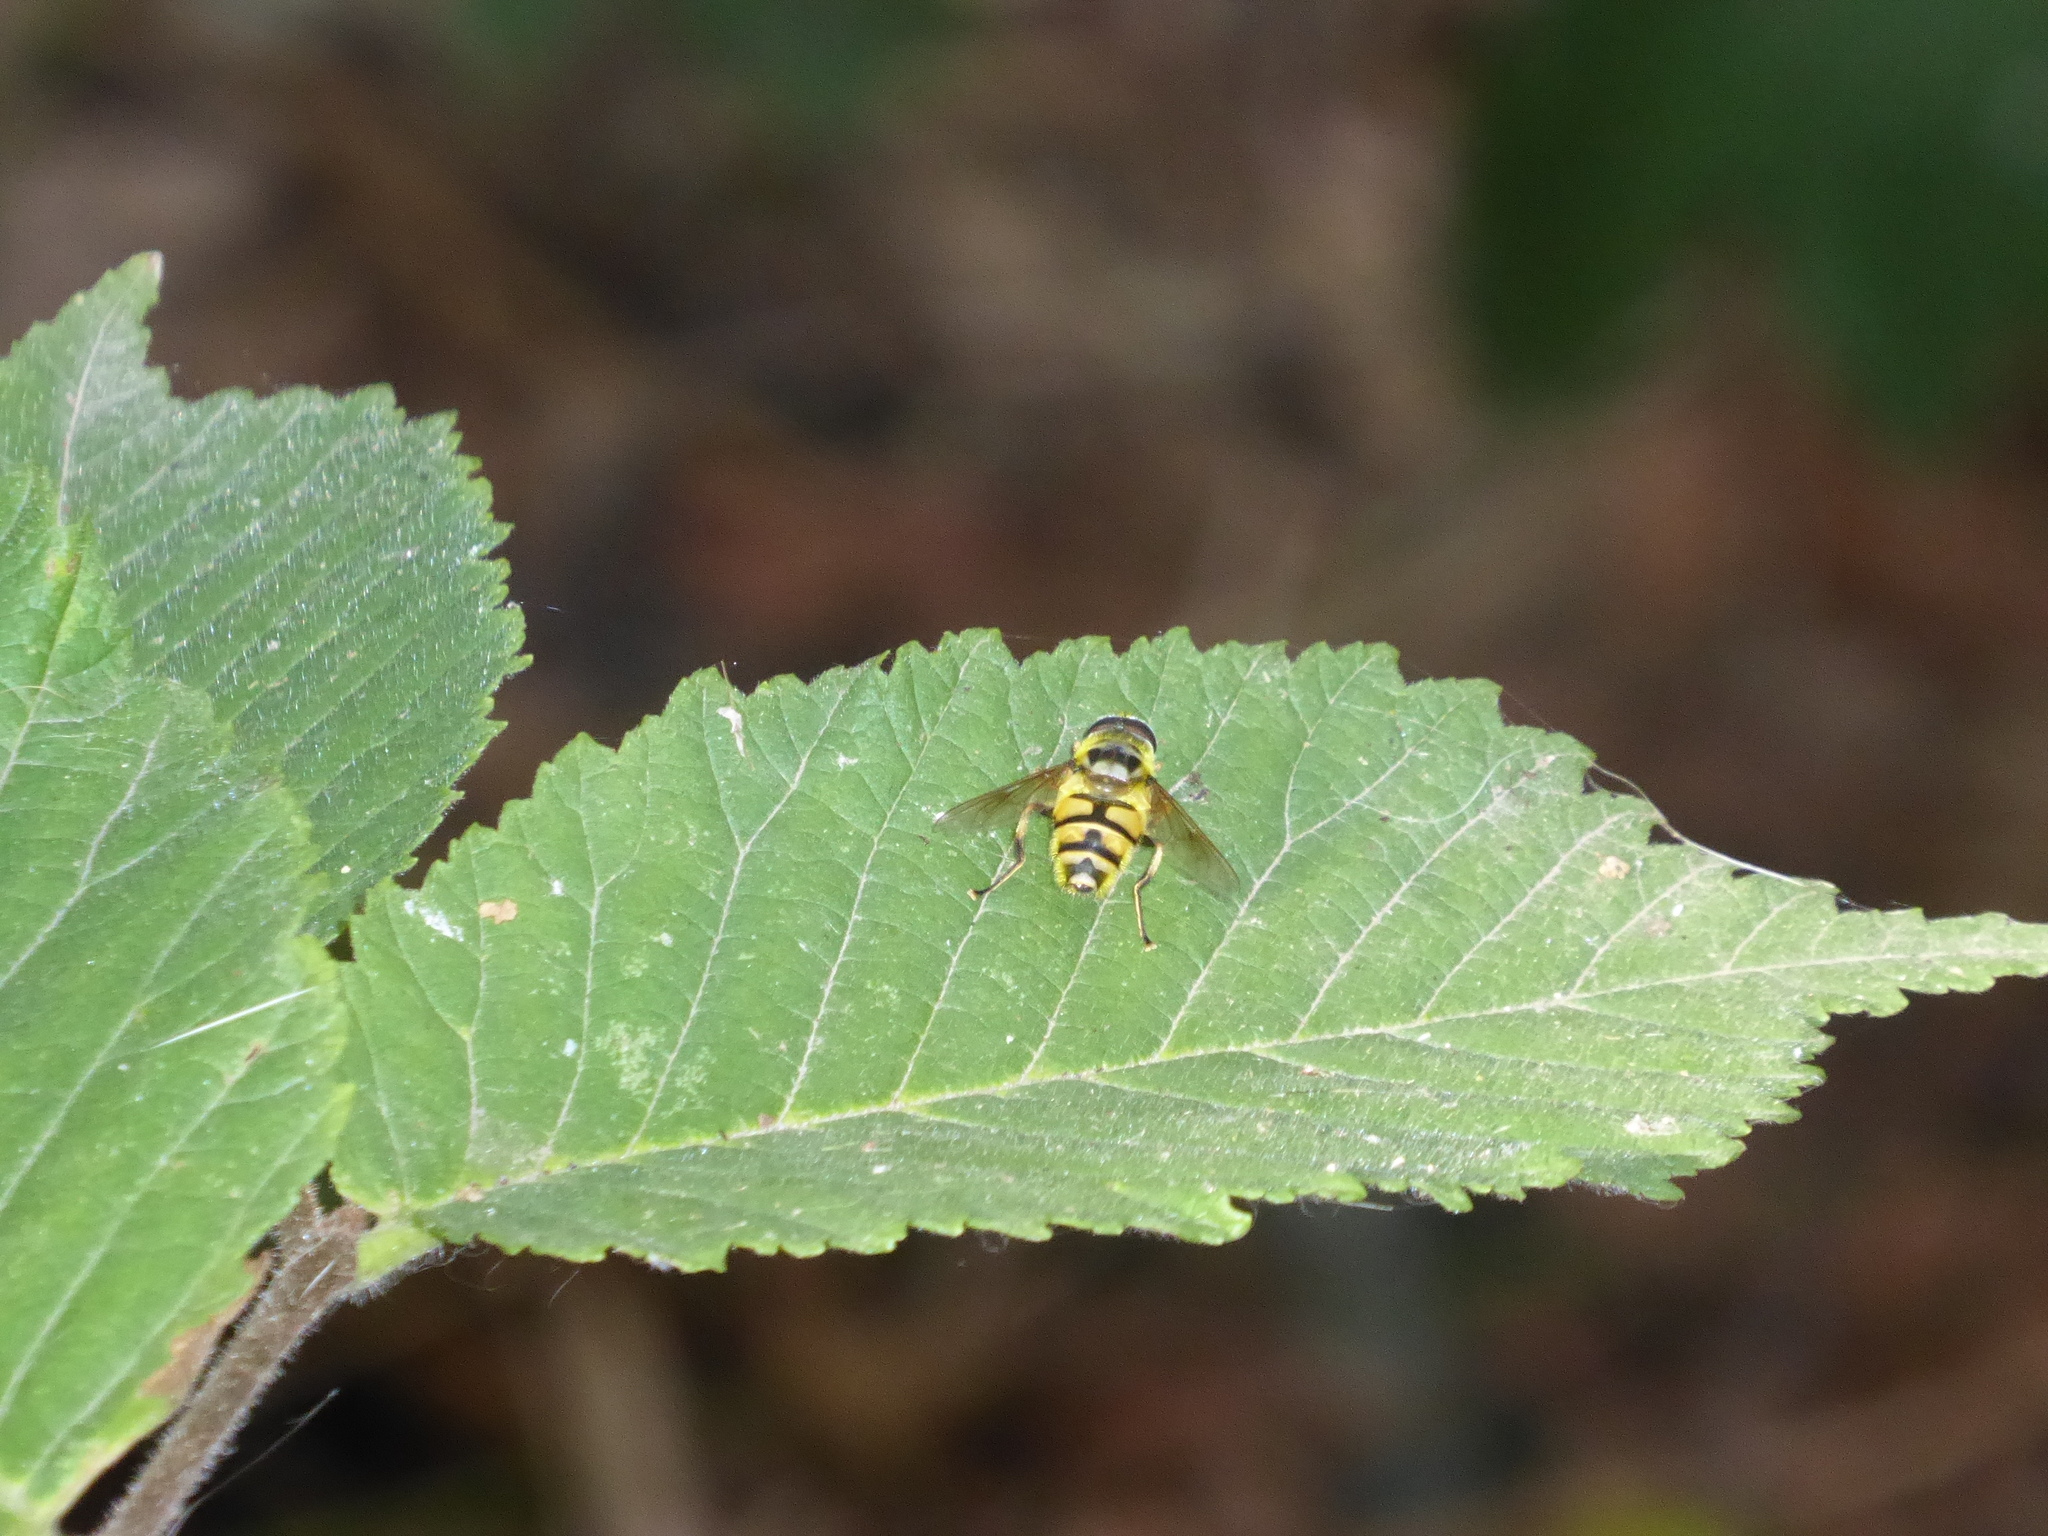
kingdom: Animalia
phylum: Arthropoda
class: Insecta
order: Diptera
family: Syrphidae
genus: Myathropa
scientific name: Myathropa florea
